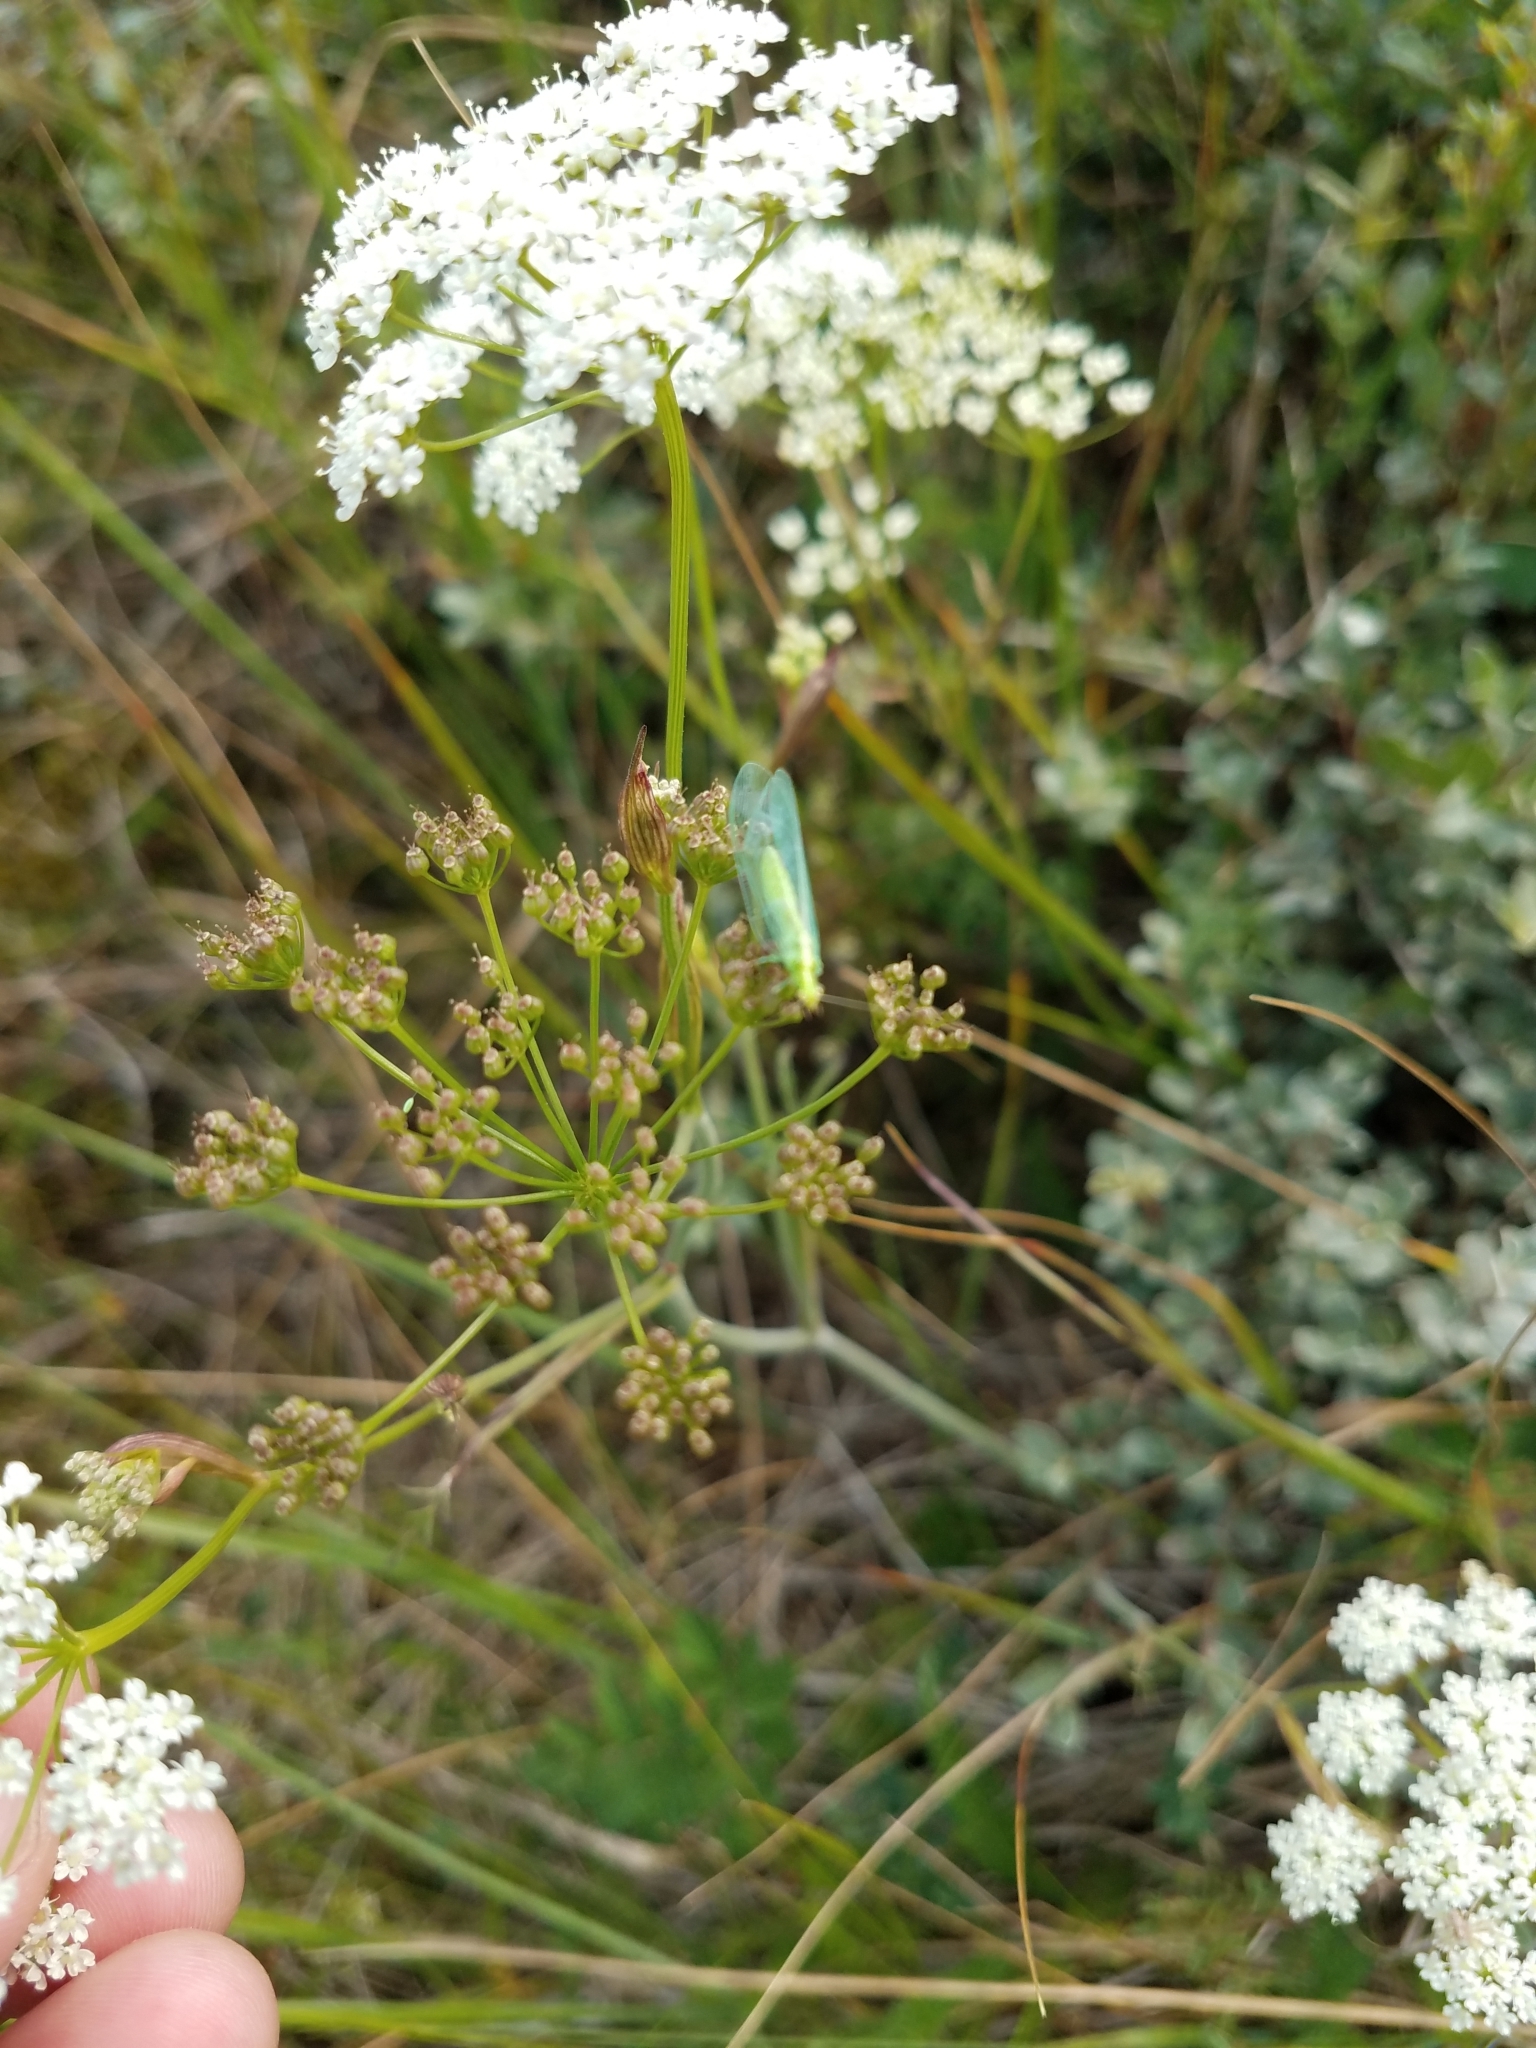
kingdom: Plantae
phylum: Tracheophyta
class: Magnoliopsida
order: Apiales
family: Apiaceae
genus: Pimpinella
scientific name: Pimpinella saxifraga
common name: Burnet-saxifrage
